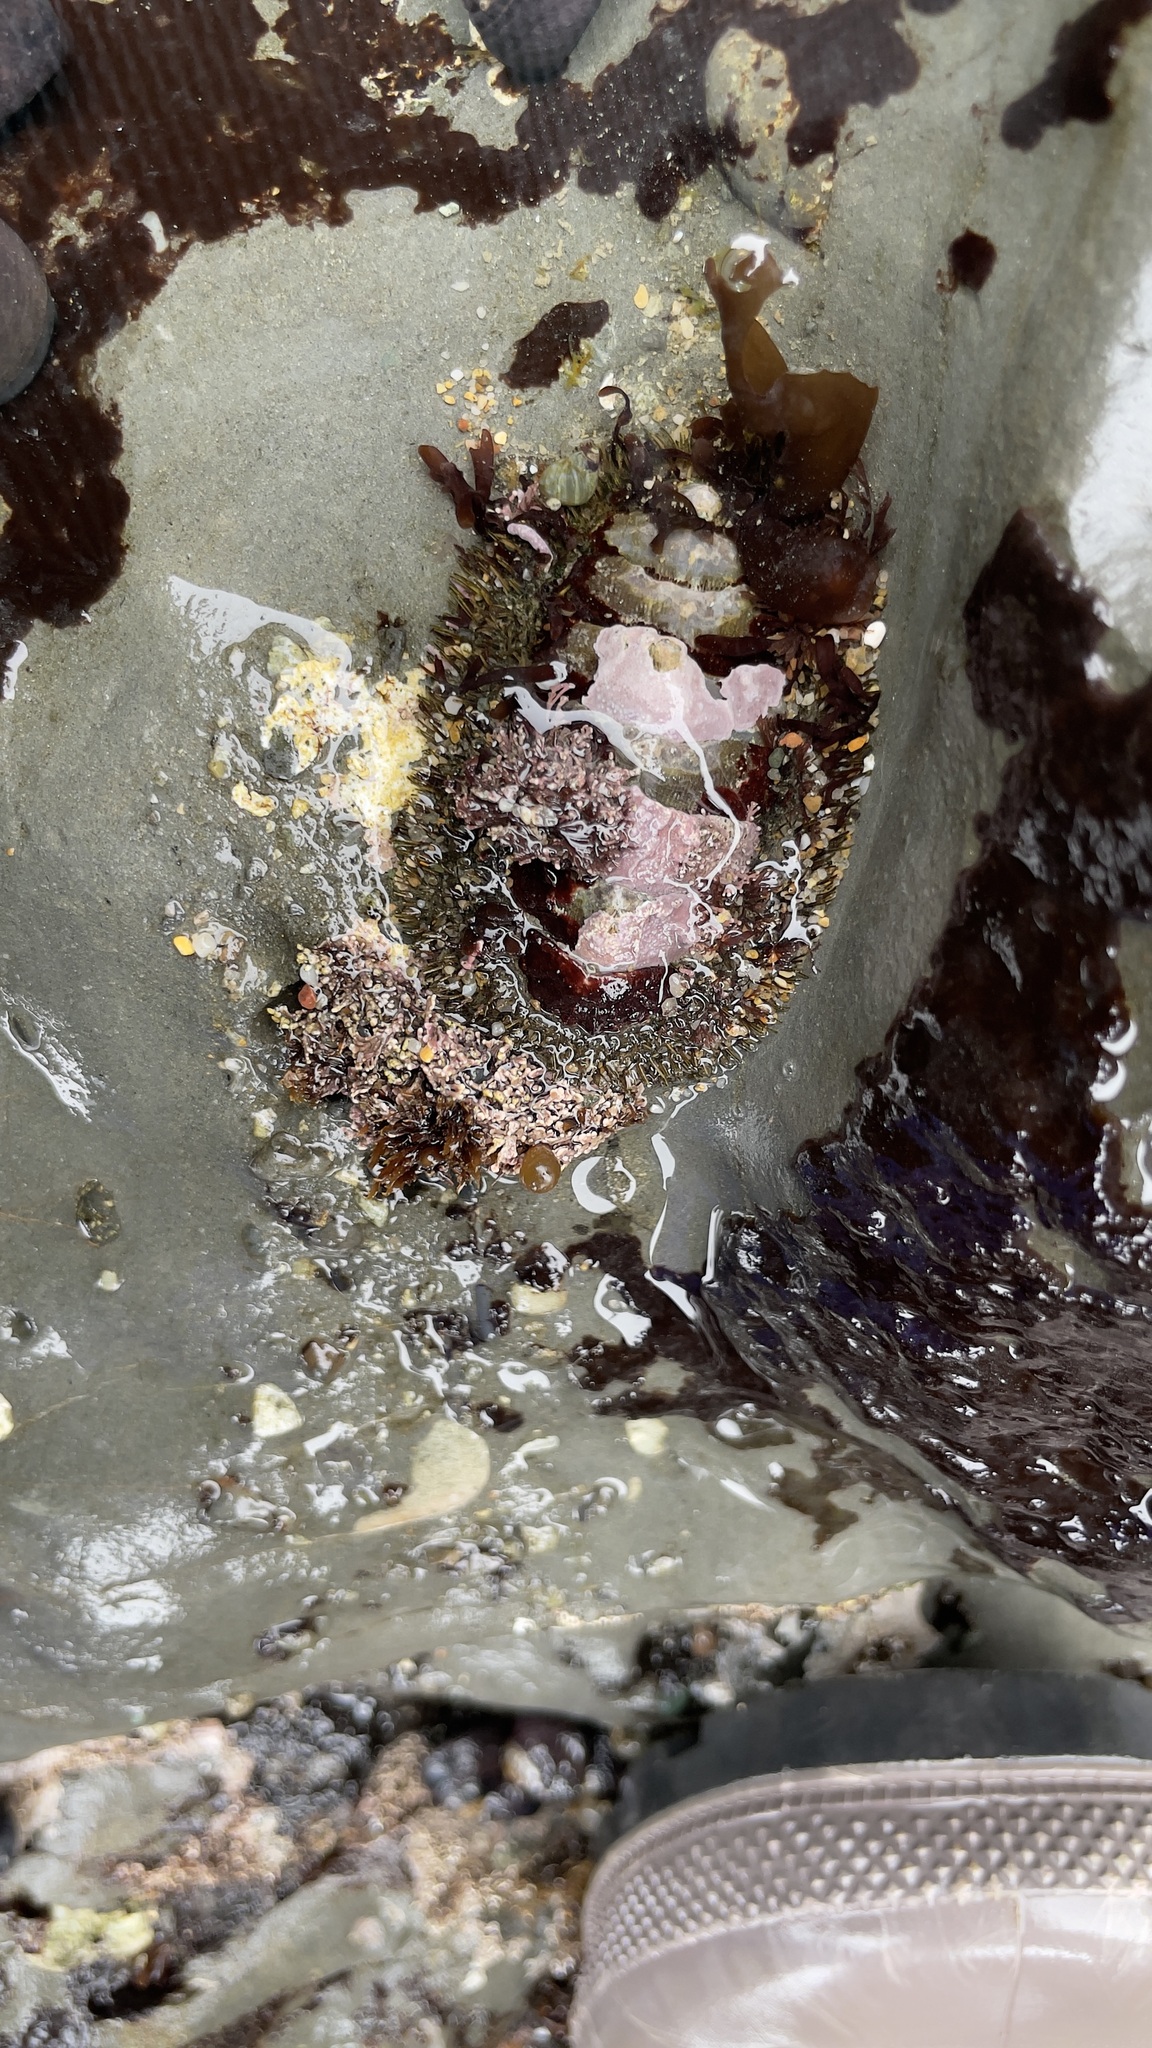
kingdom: Animalia
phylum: Mollusca
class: Polyplacophora
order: Chitonida
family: Mopaliidae
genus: Mopalia
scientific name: Mopalia muscosa
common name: Mossy chiton
